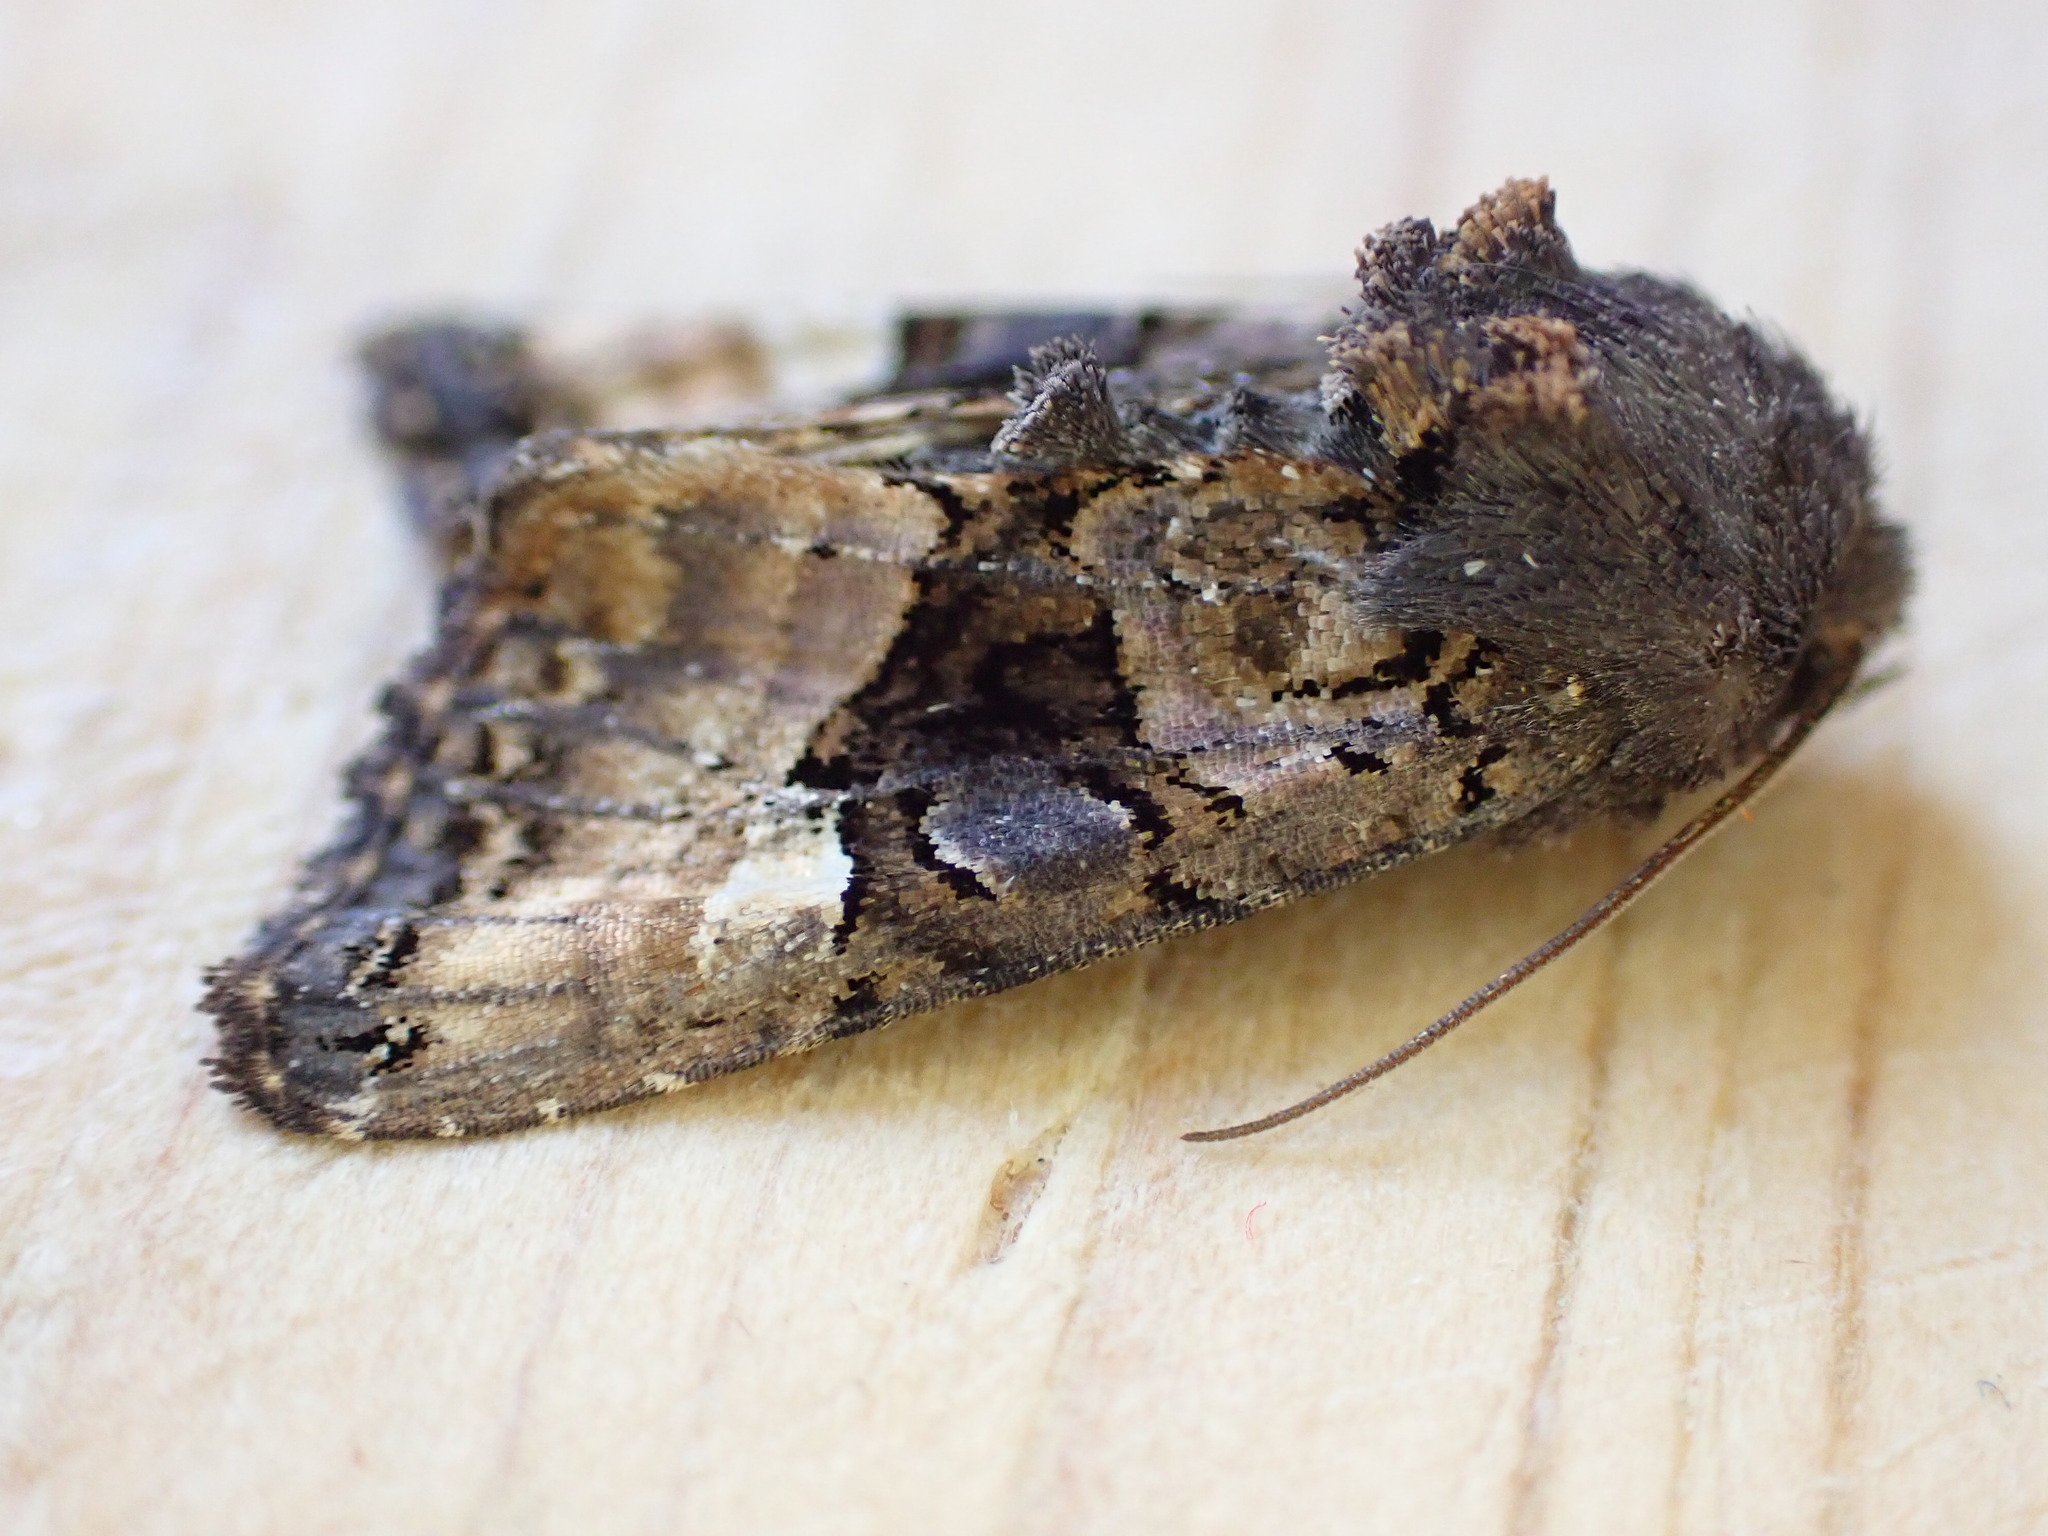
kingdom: Animalia
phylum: Arthropoda
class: Insecta
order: Lepidoptera
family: Noctuidae
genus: Euplexia
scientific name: Euplexia lucipara
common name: Small angle shades
